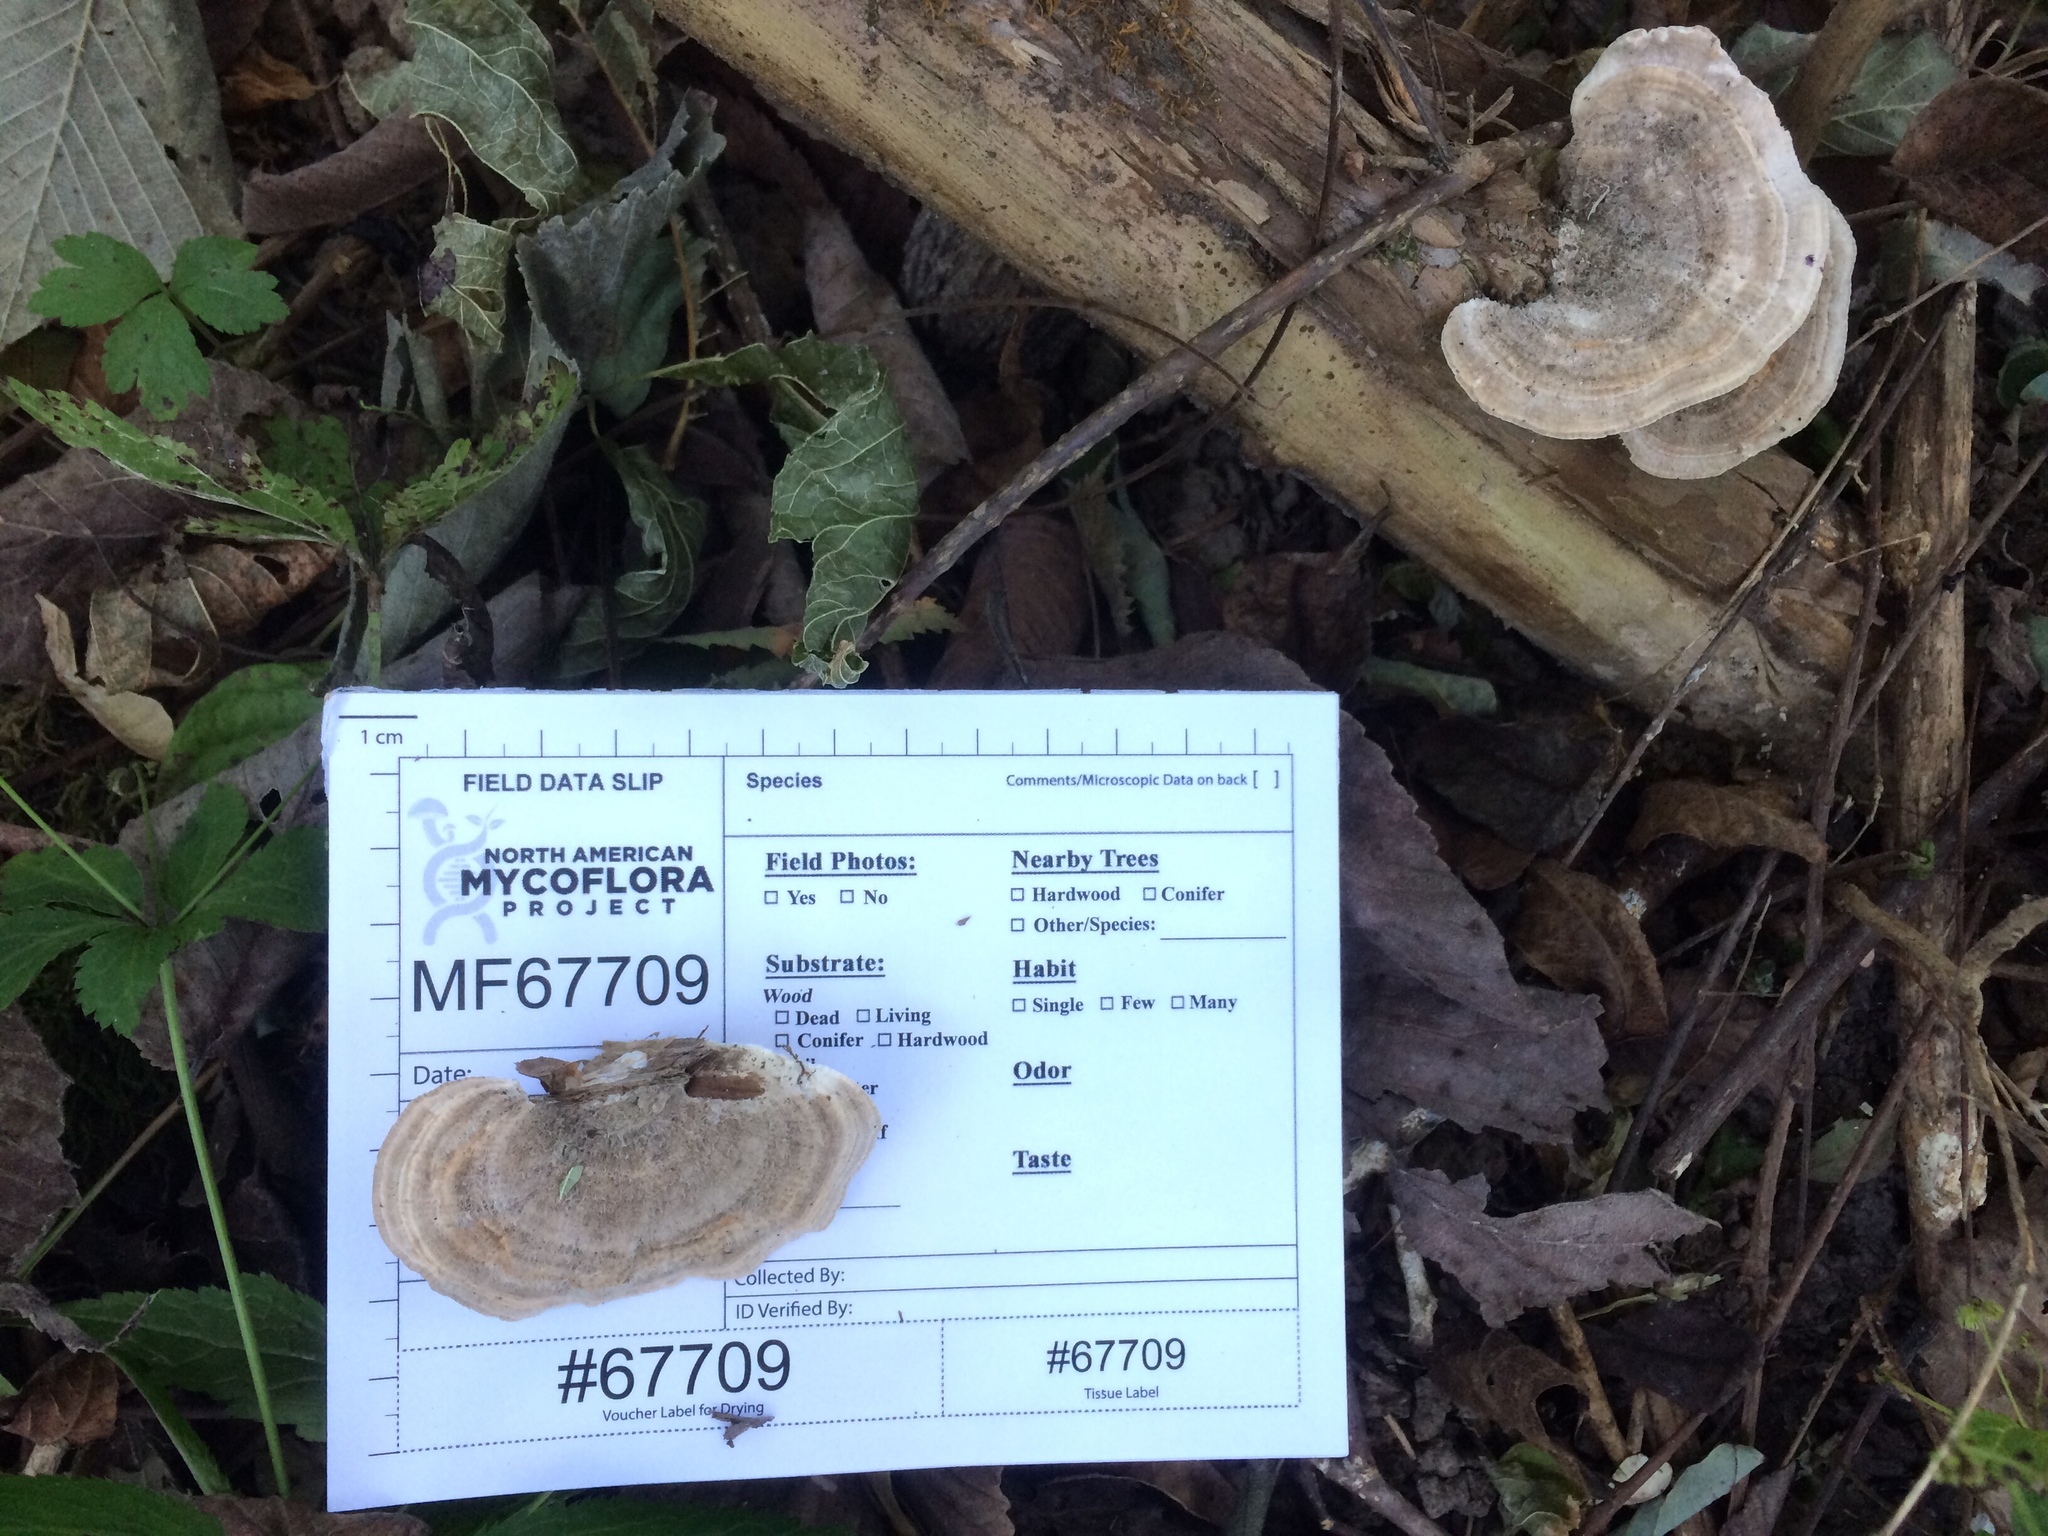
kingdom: Fungi
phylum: Basidiomycota
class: Agaricomycetes
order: Polyporales
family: Polyporaceae
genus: Lenzites
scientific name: Lenzites betulinus
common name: Birch mazegill
